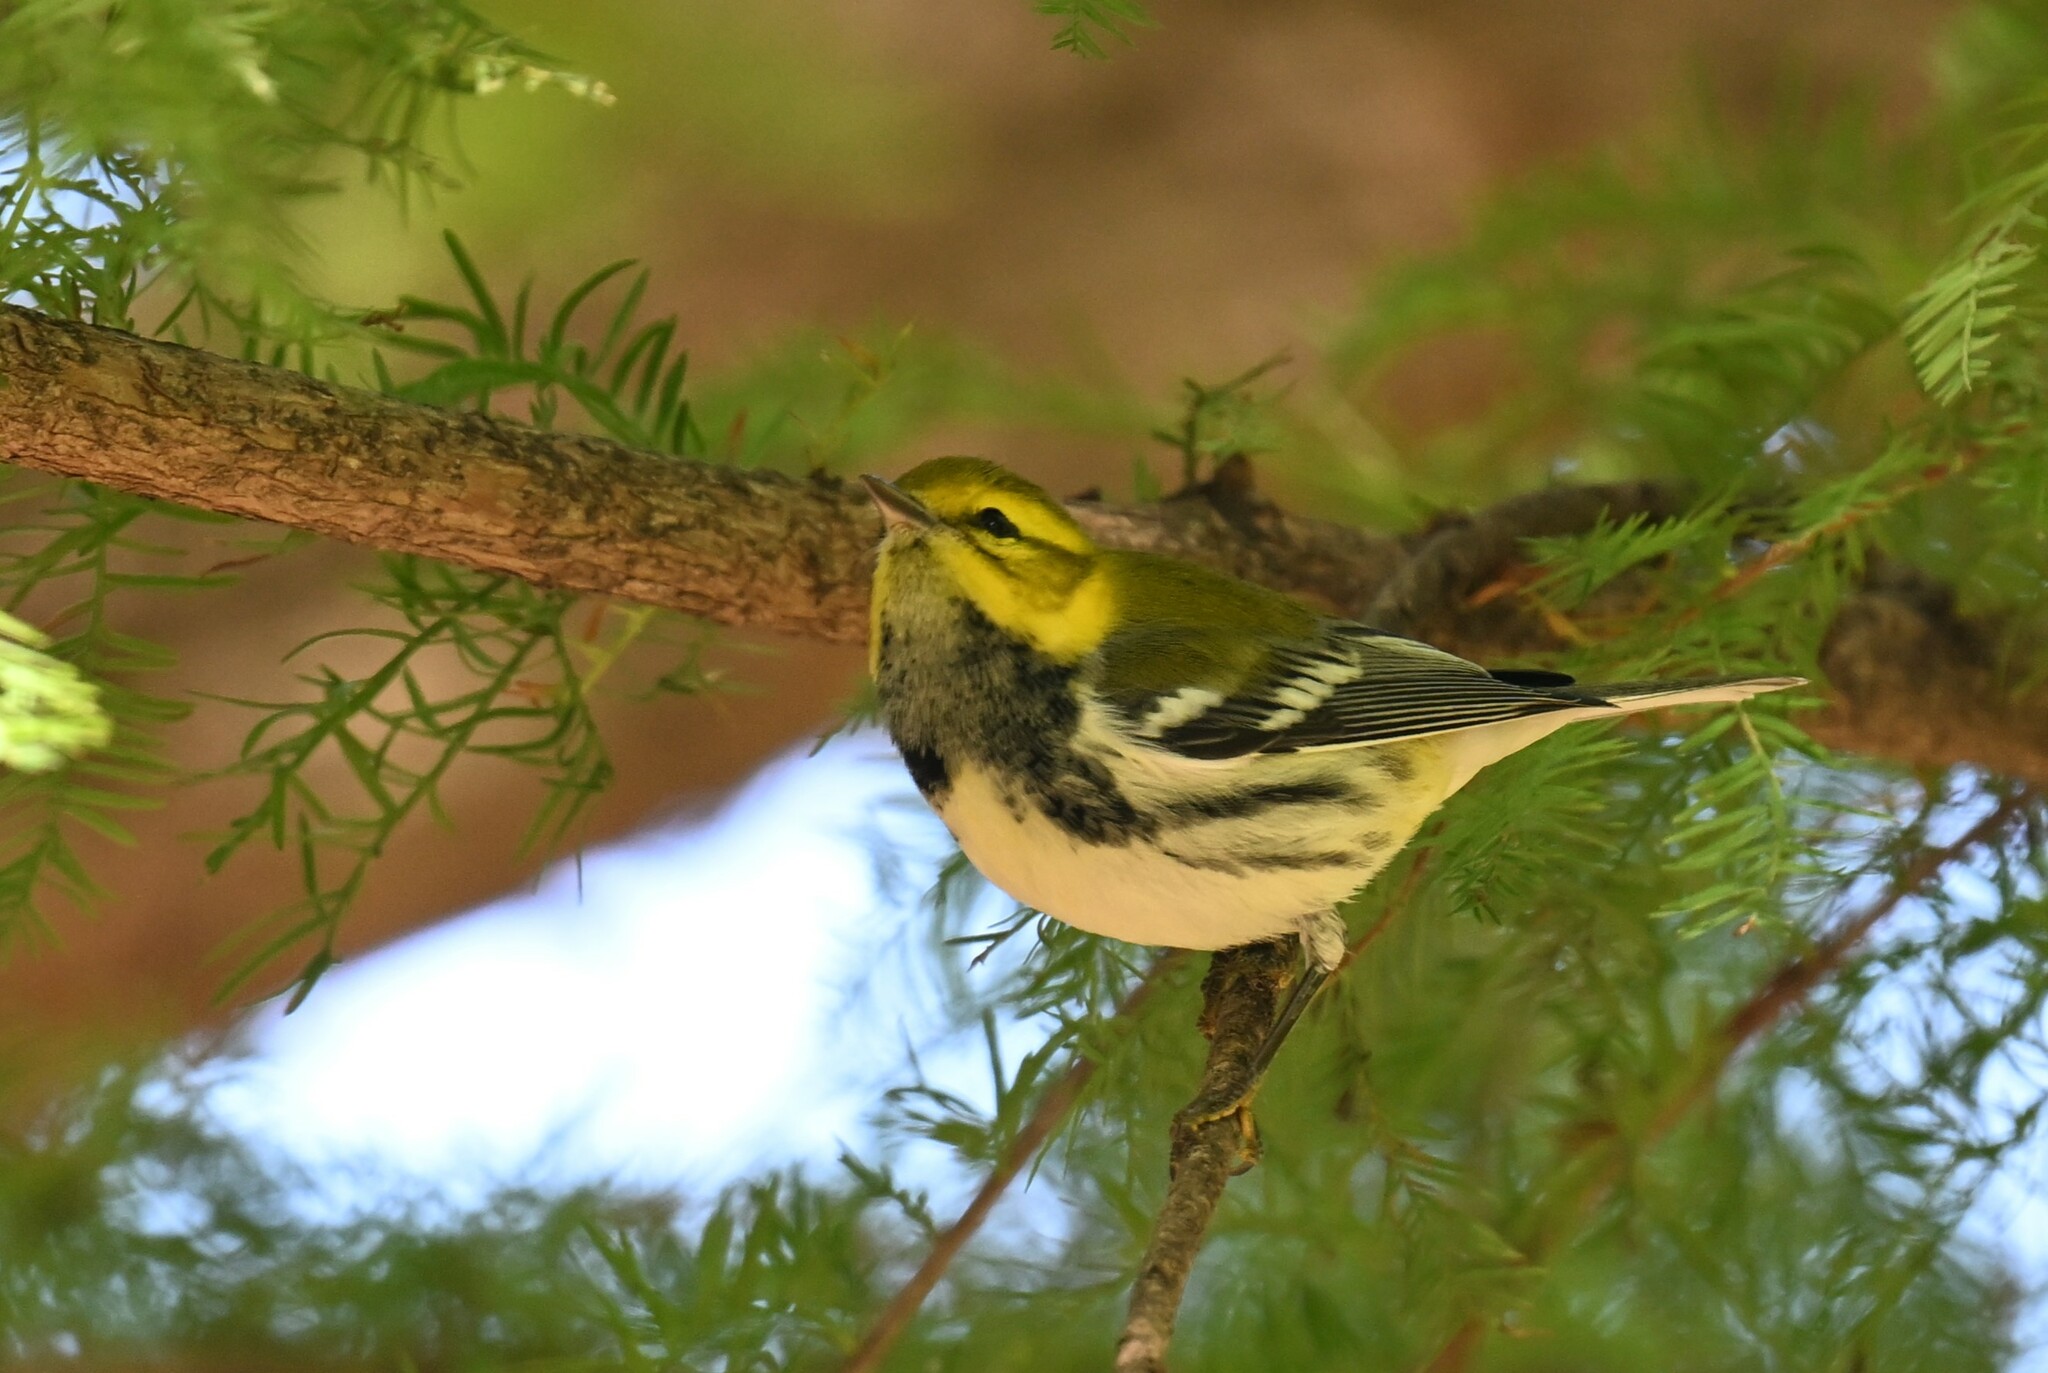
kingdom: Animalia
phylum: Chordata
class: Aves
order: Passeriformes
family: Parulidae
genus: Setophaga
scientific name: Setophaga virens
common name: Black-throated green warbler
